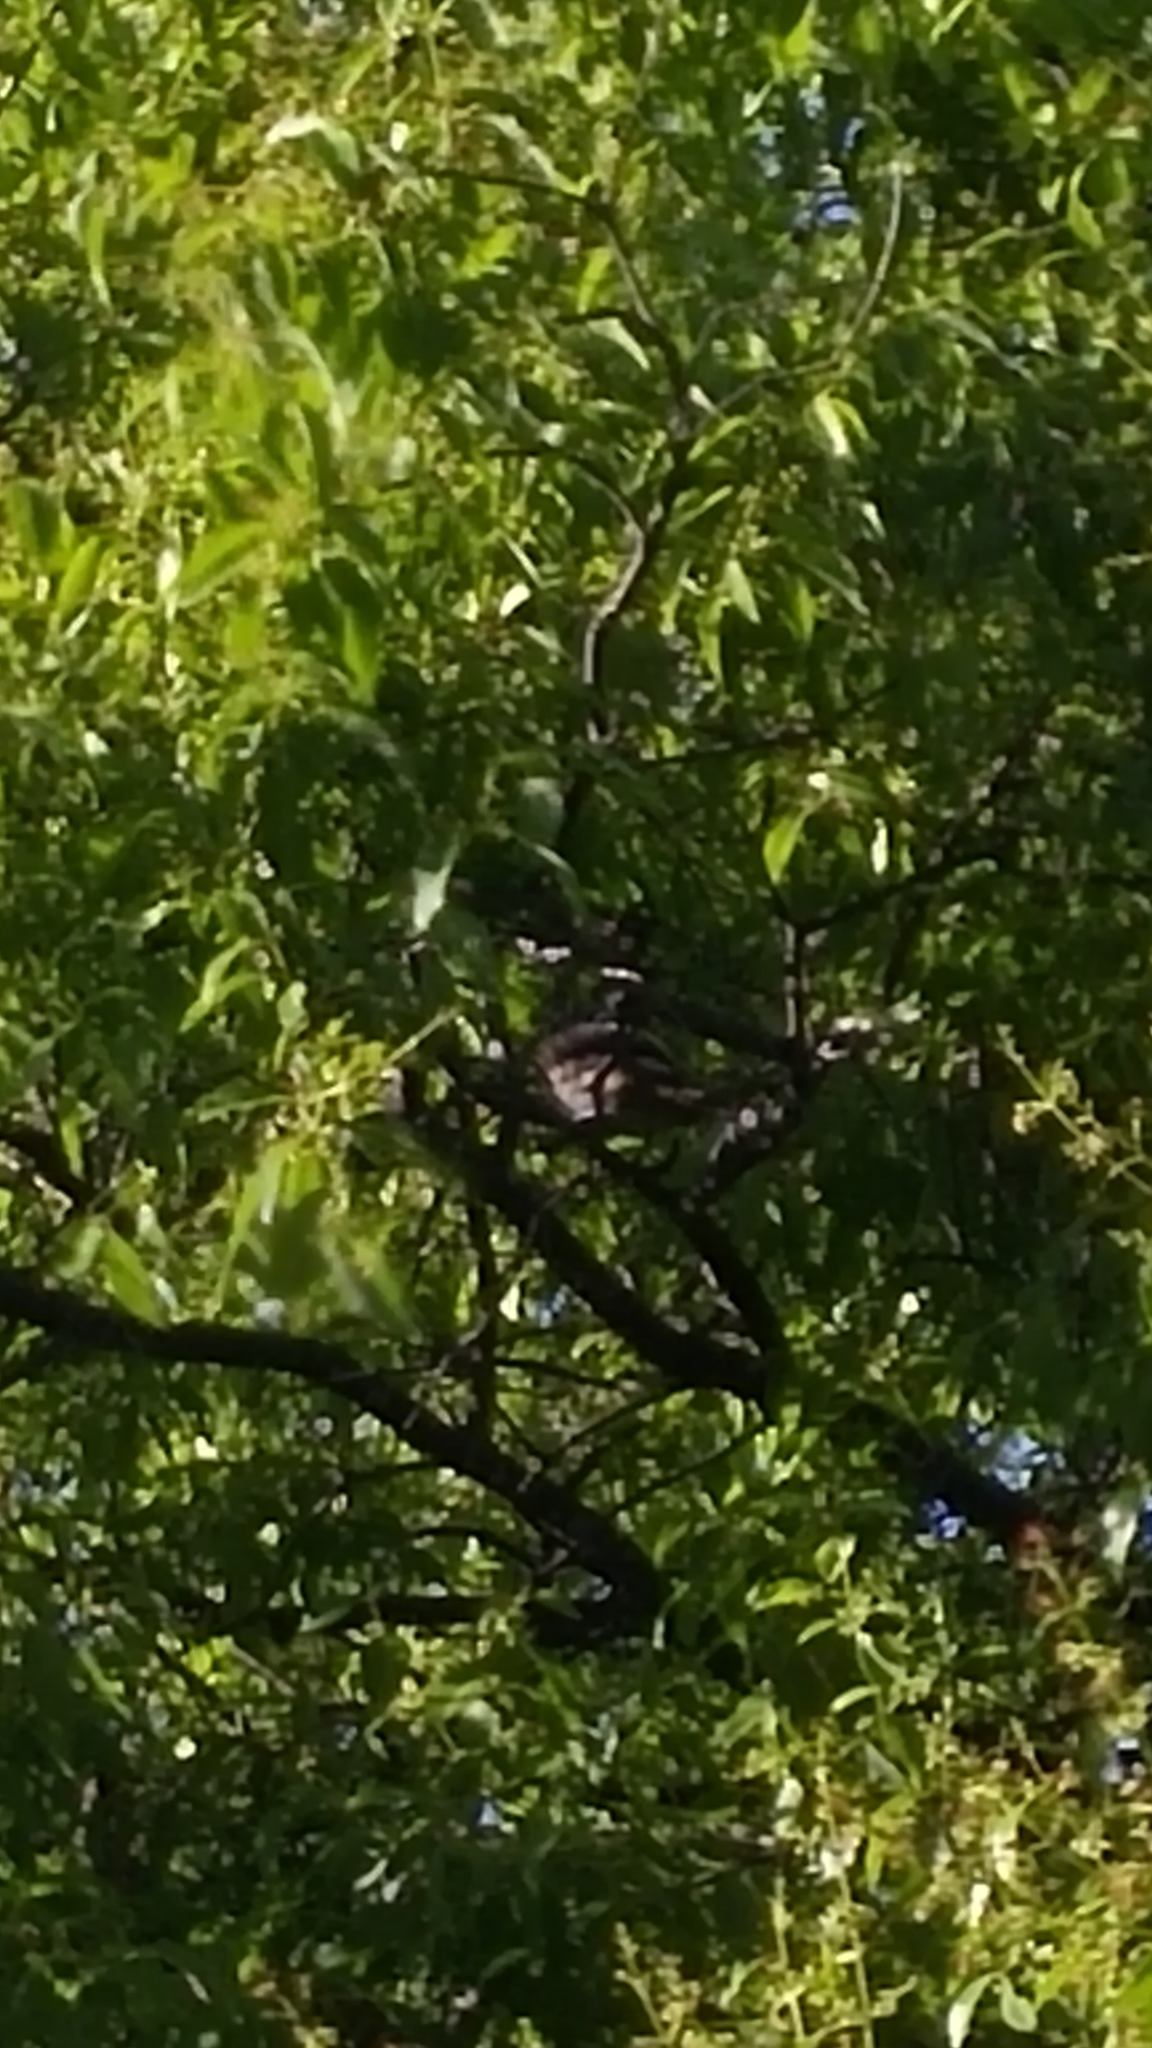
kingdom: Animalia
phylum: Chordata
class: Aves
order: Passeriformes
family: Pycnonotidae
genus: Pycnonotus
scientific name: Pycnonotus cafer
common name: Red-vented bulbul
